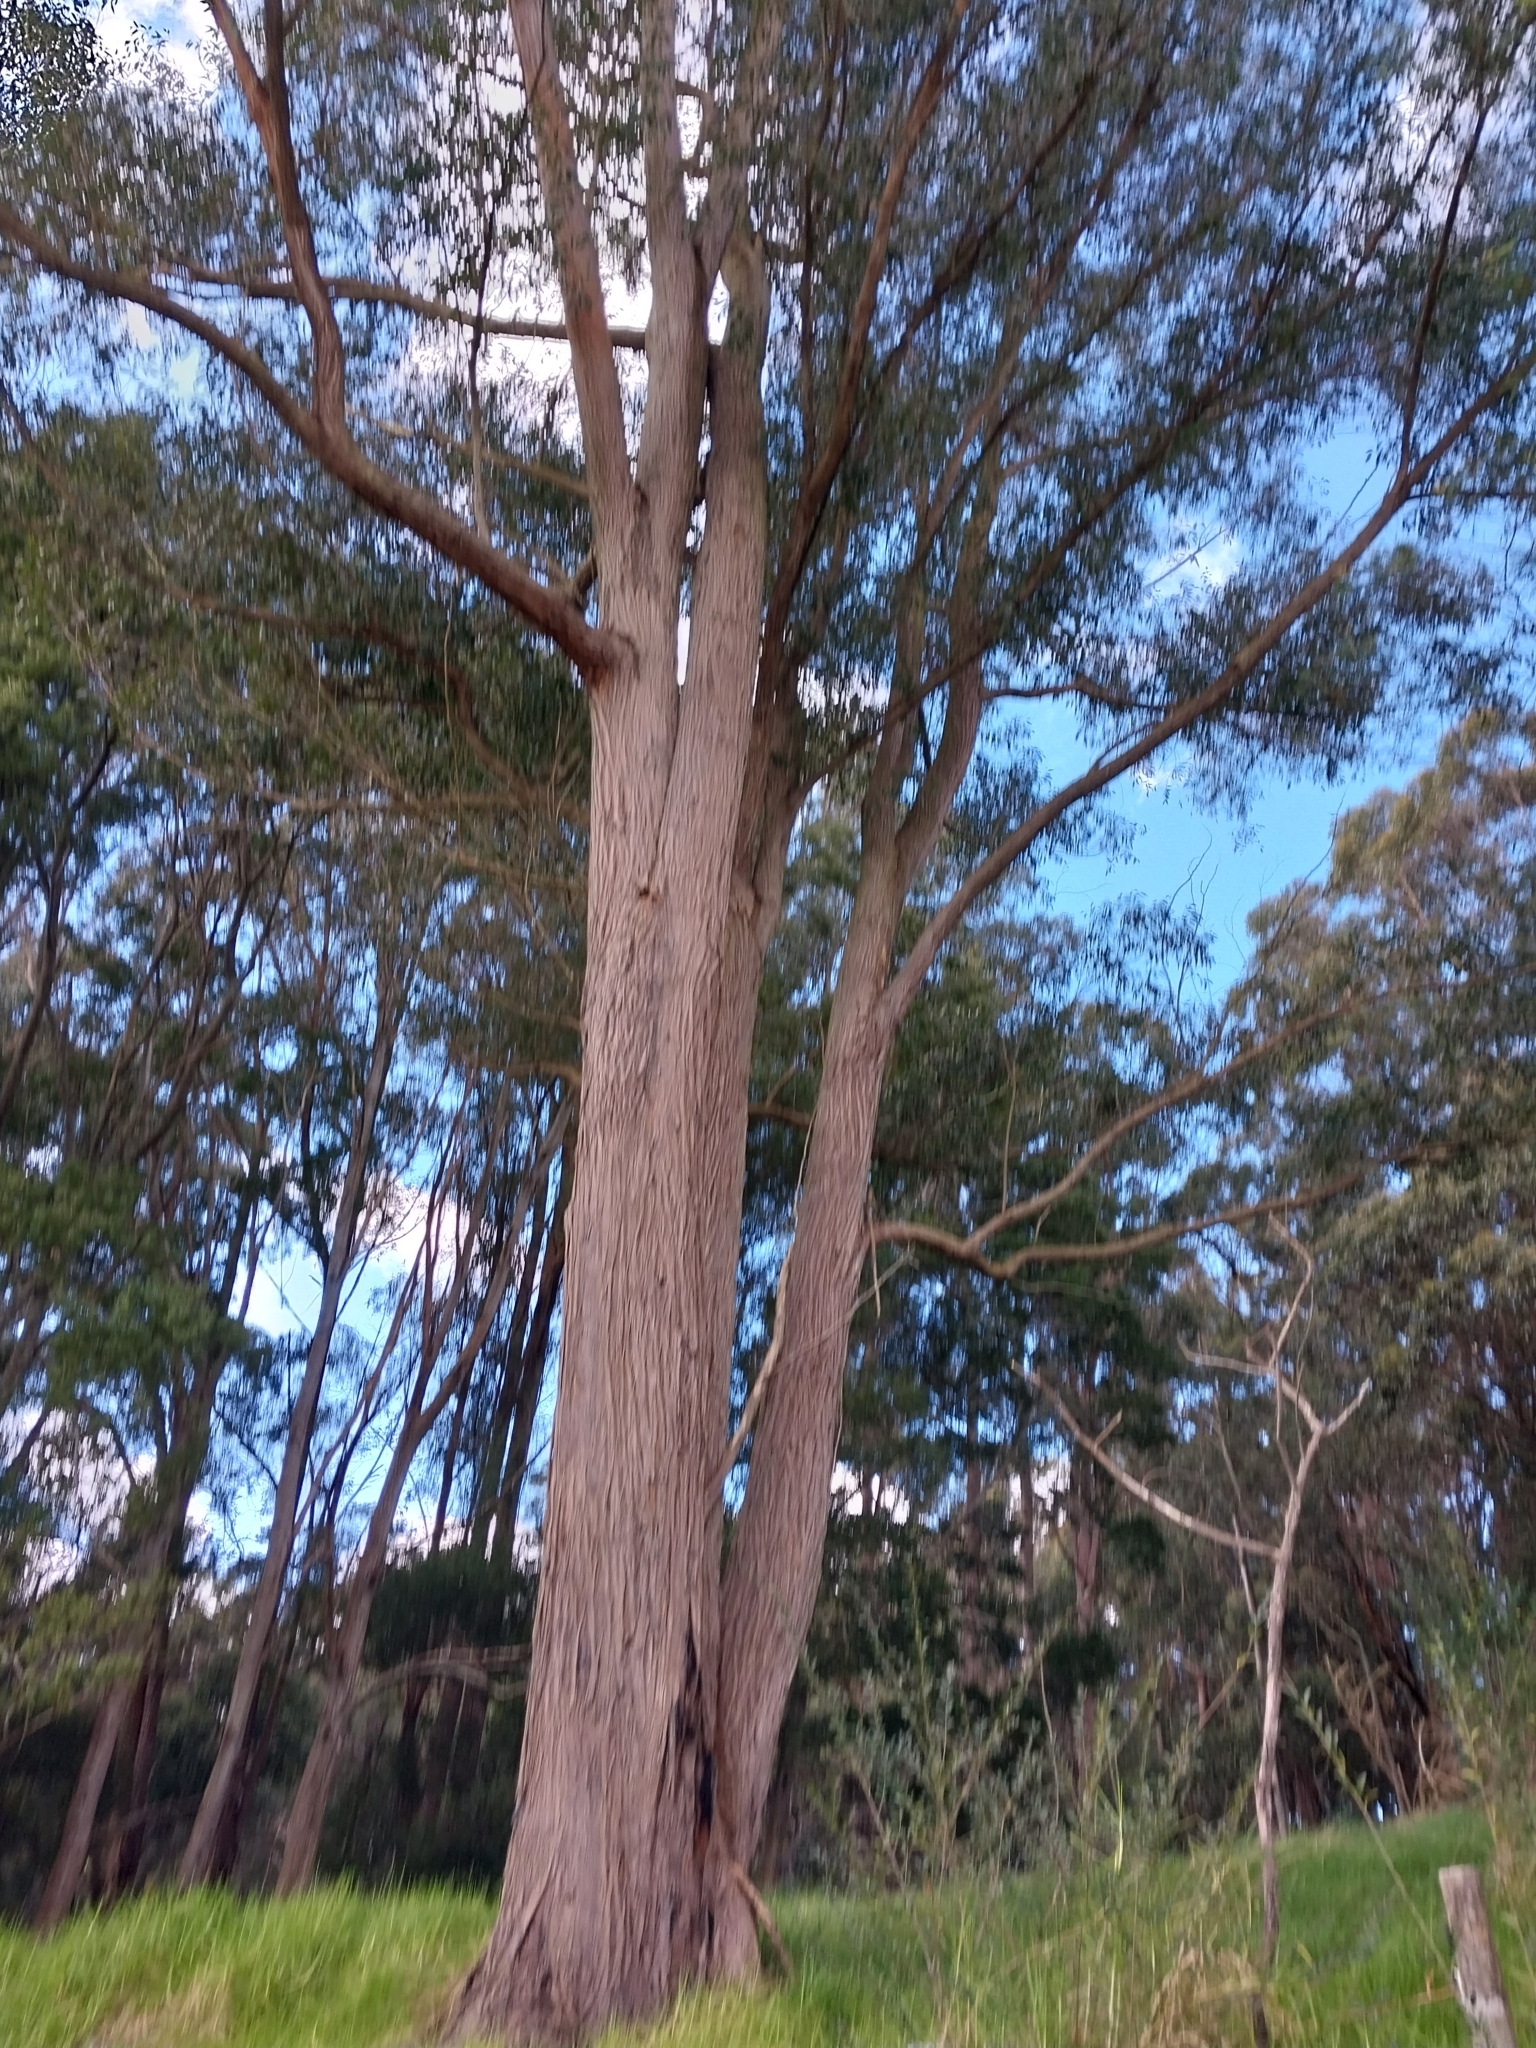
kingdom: Plantae
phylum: Tracheophyta
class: Magnoliopsida
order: Myrtales
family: Myrtaceae
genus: Eucalyptus
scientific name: Eucalyptus globoidea
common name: White-stringybark
